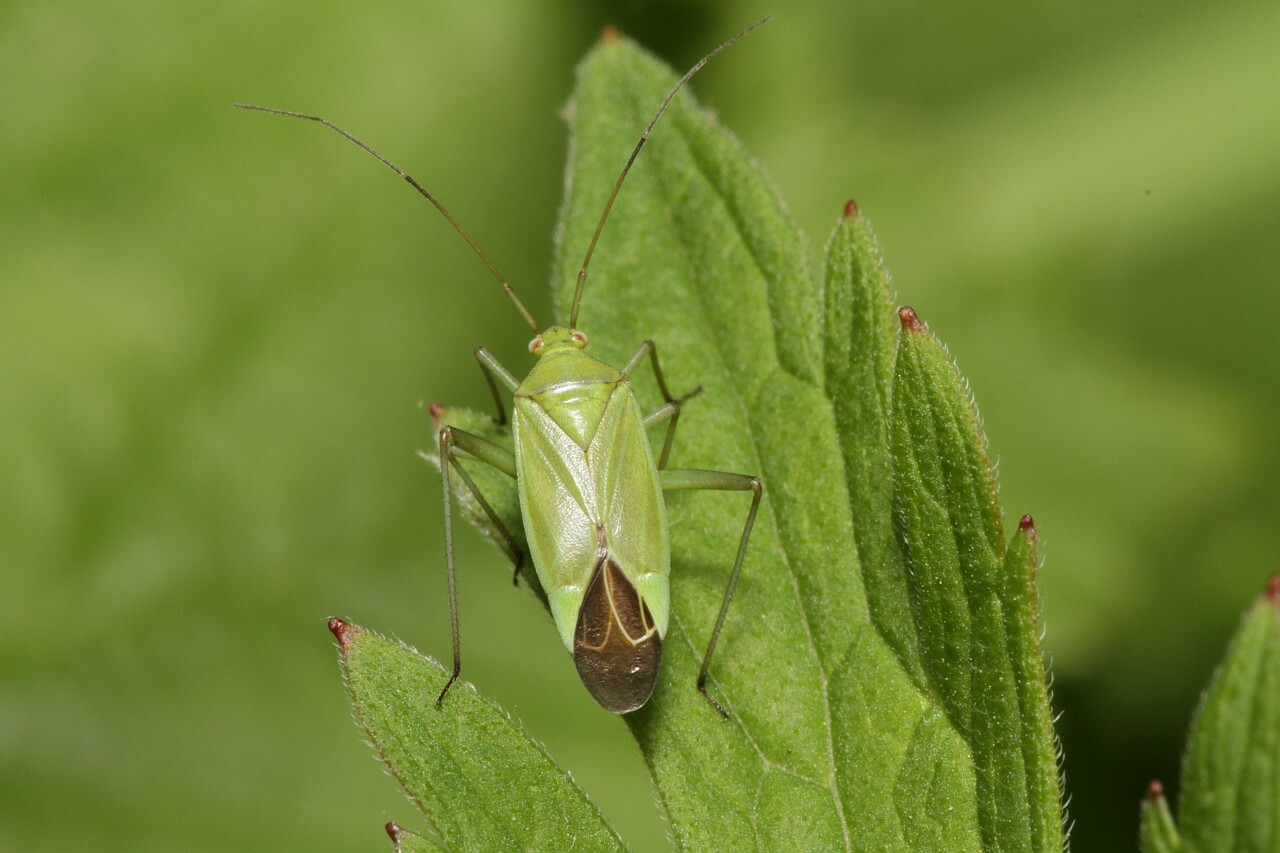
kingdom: Animalia
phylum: Arthropoda
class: Insecta
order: Hemiptera
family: Miridae
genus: Calocoris
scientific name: Calocoris affinis
